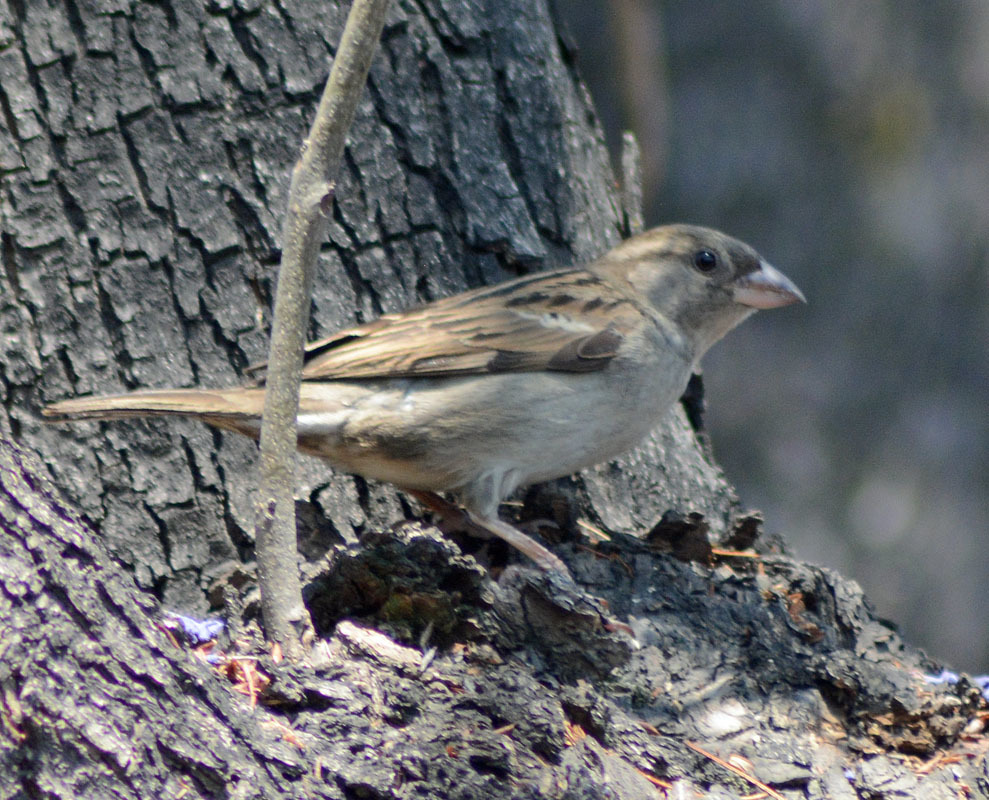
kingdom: Animalia
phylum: Chordata
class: Aves
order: Passeriformes
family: Passeridae
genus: Passer
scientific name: Passer domesticus
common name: House sparrow
